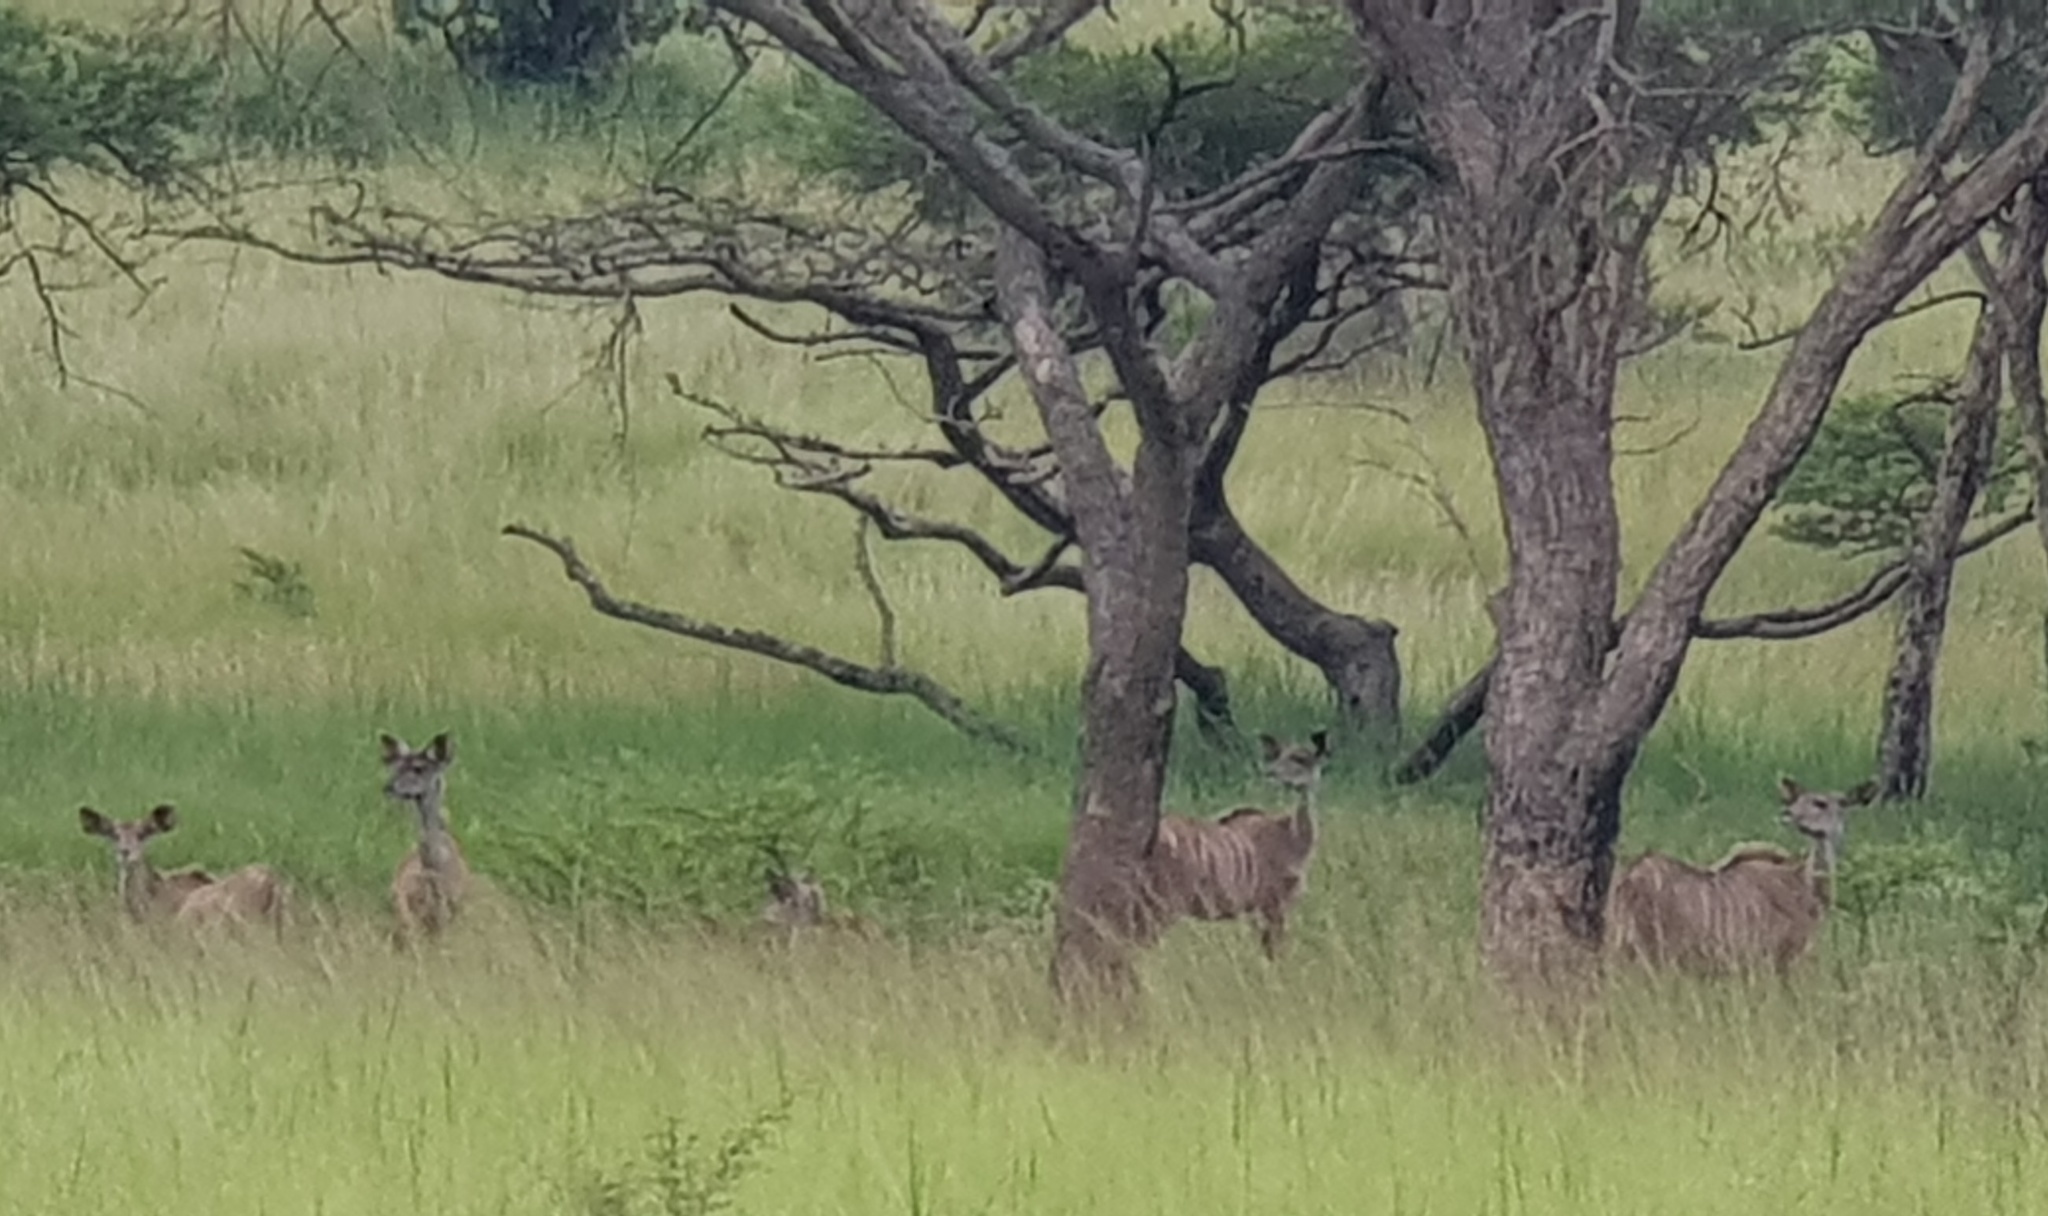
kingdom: Animalia
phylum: Chordata
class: Mammalia
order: Artiodactyla
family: Bovidae
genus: Tragelaphus
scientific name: Tragelaphus strepsiceros
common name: Greater kudu
